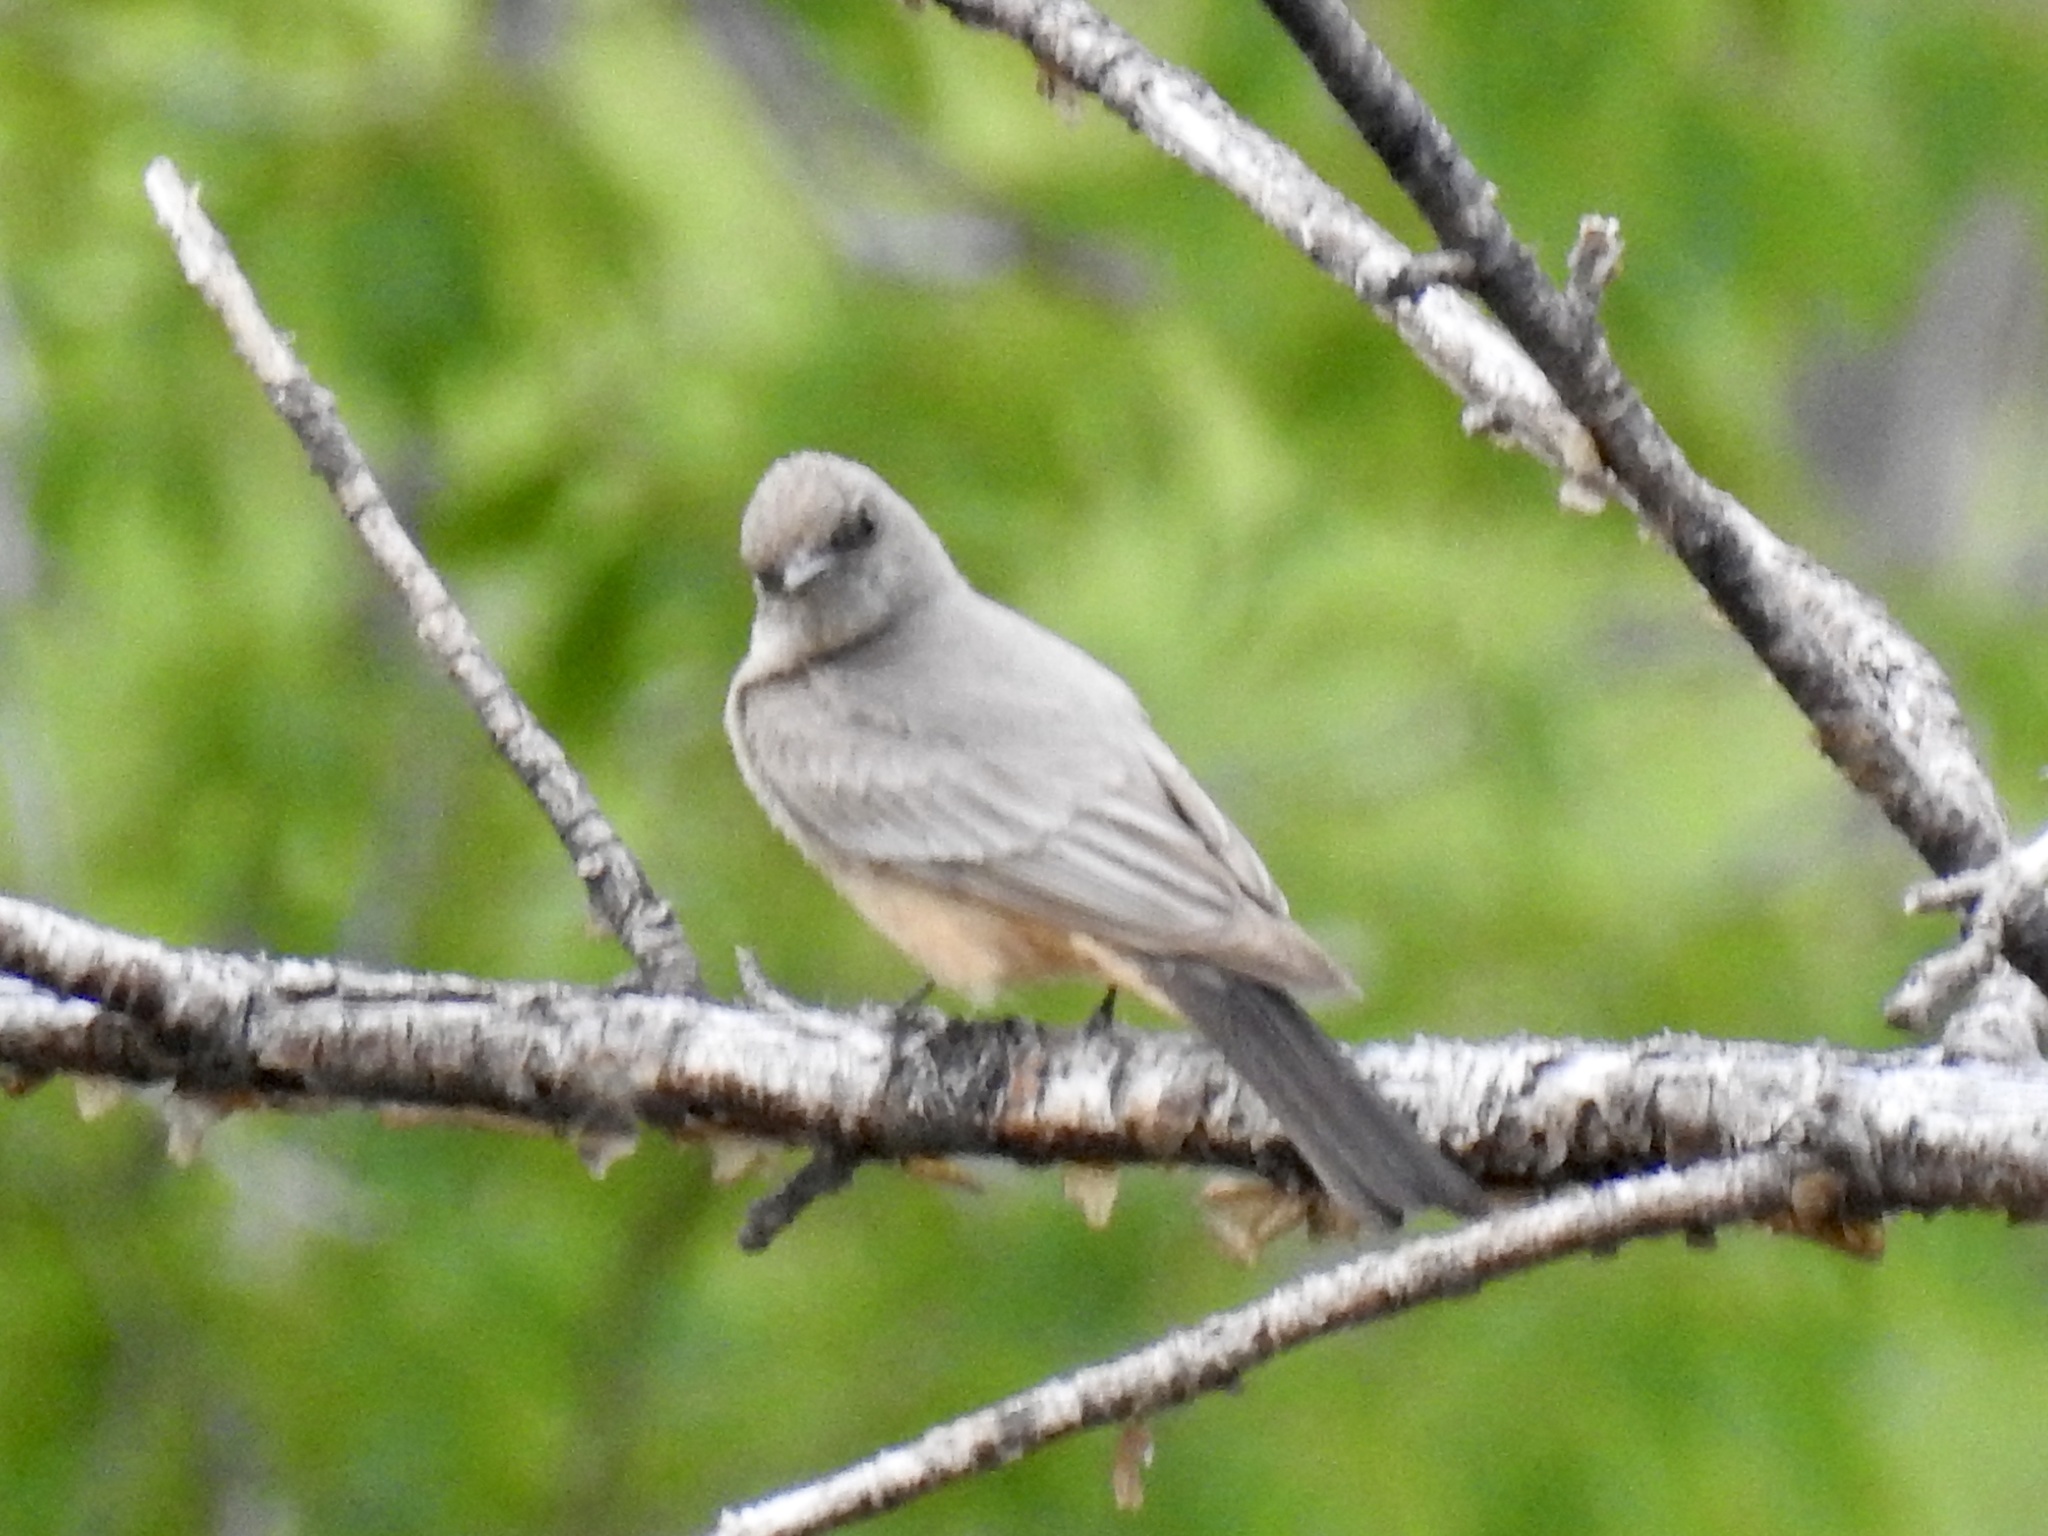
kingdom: Animalia
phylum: Chordata
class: Aves
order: Passeriformes
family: Tyrannidae
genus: Sayornis
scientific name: Sayornis saya
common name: Say's phoebe
